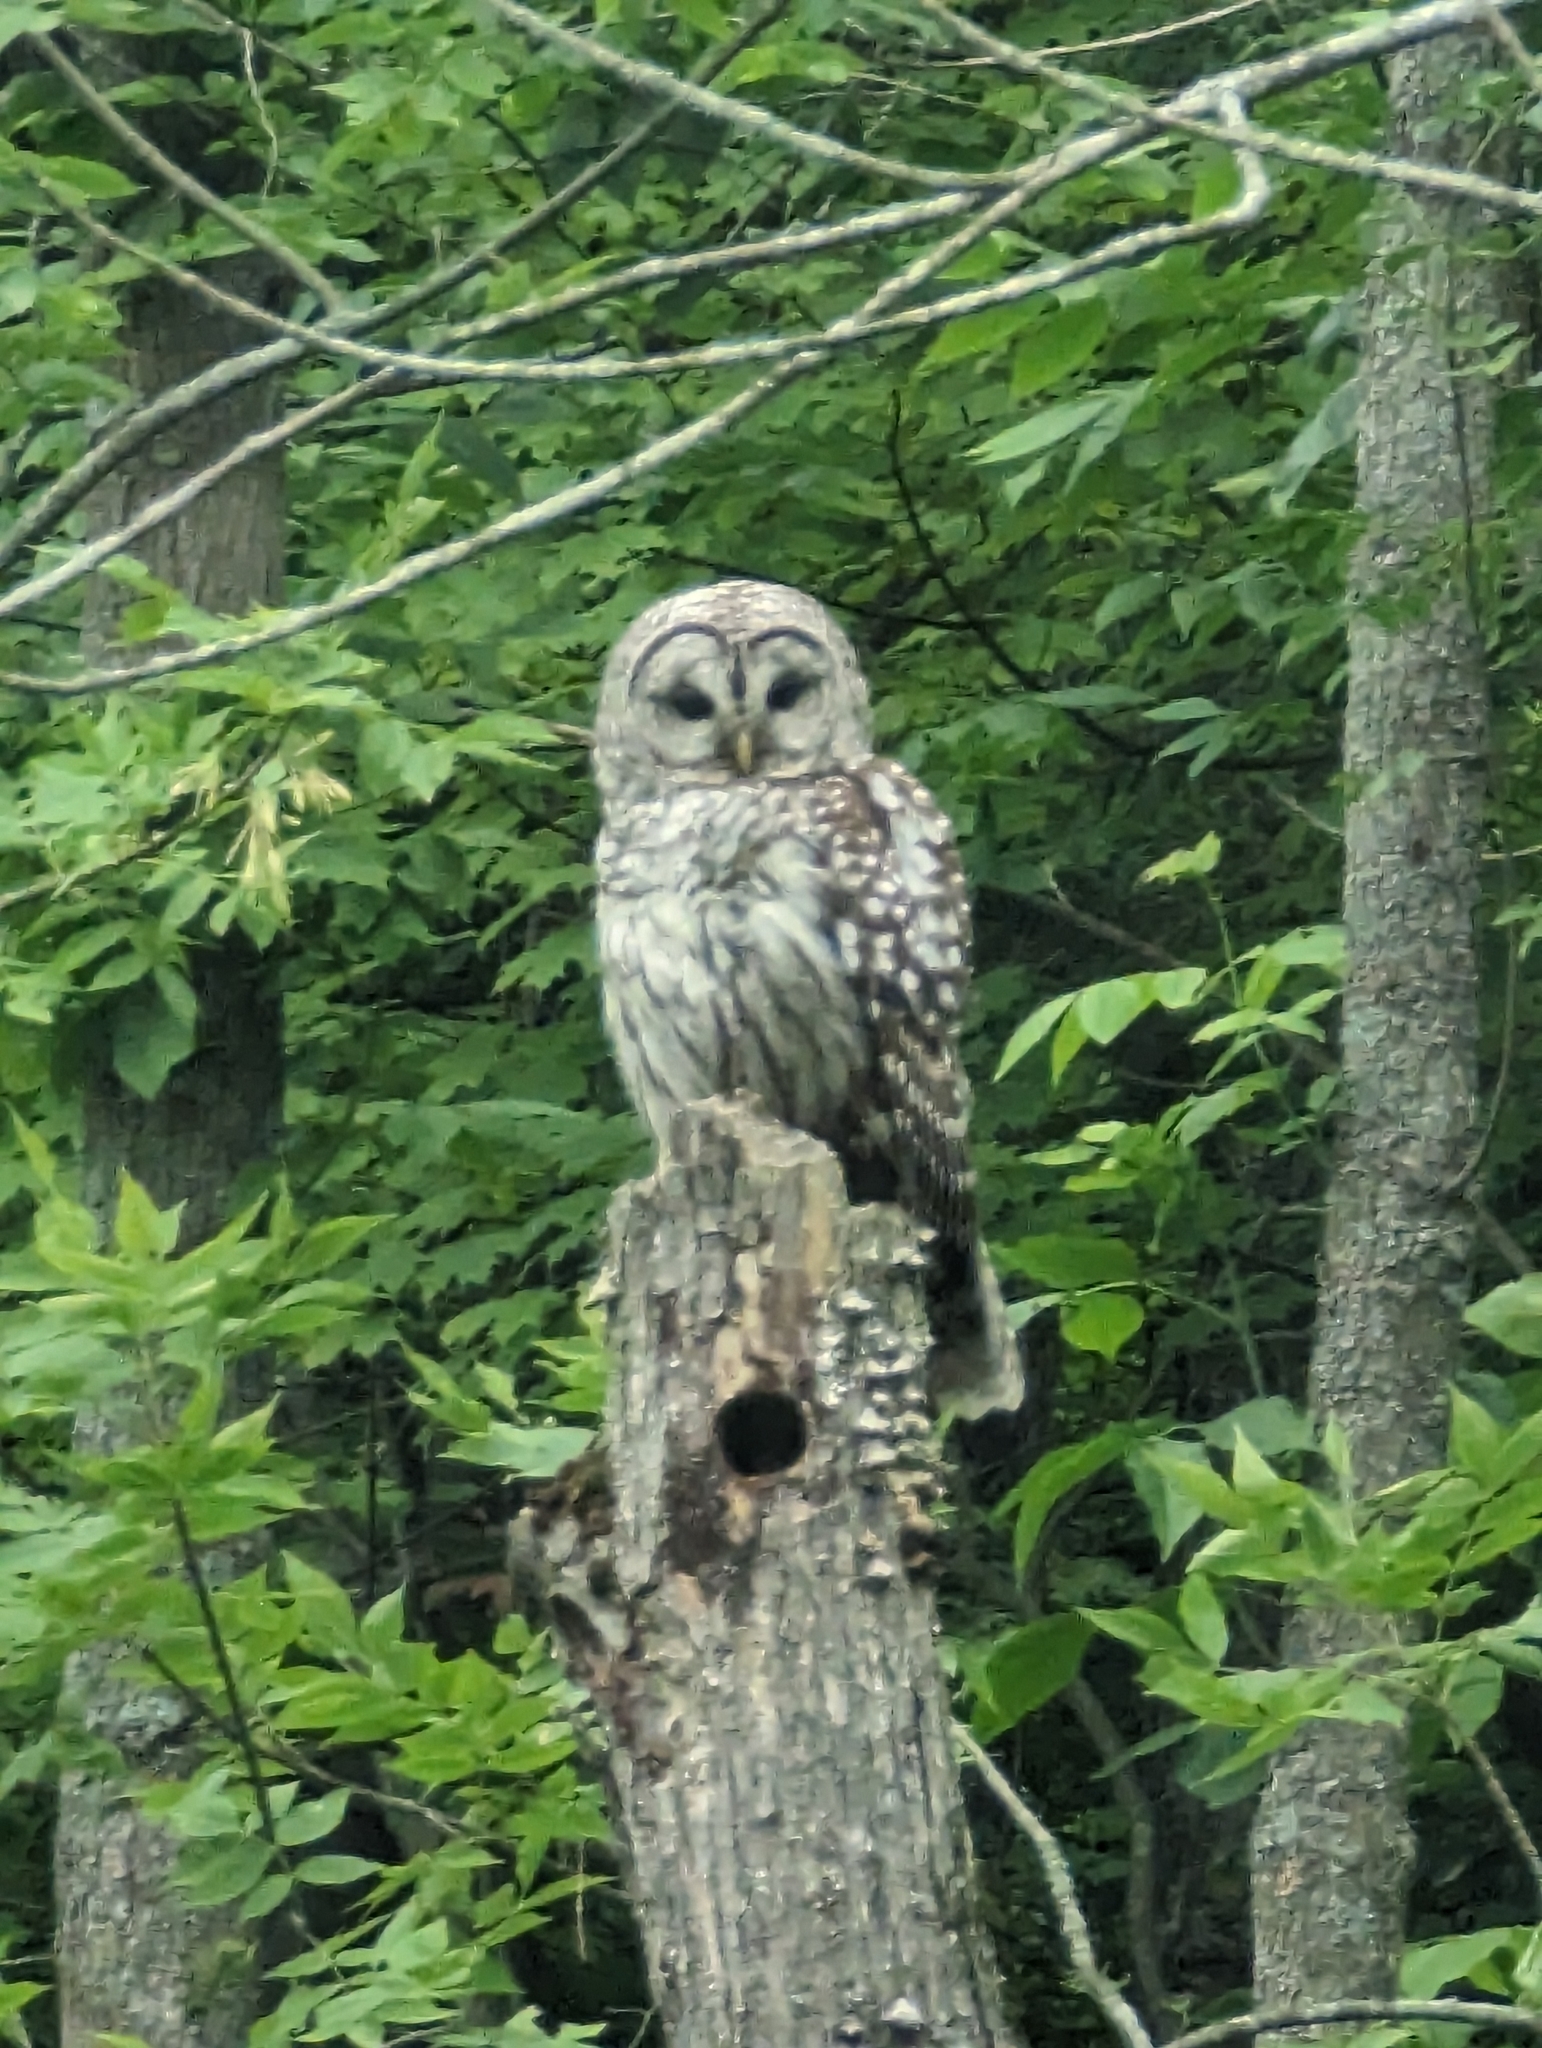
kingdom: Animalia
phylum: Chordata
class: Aves
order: Strigiformes
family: Strigidae
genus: Strix
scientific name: Strix varia
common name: Barred owl
